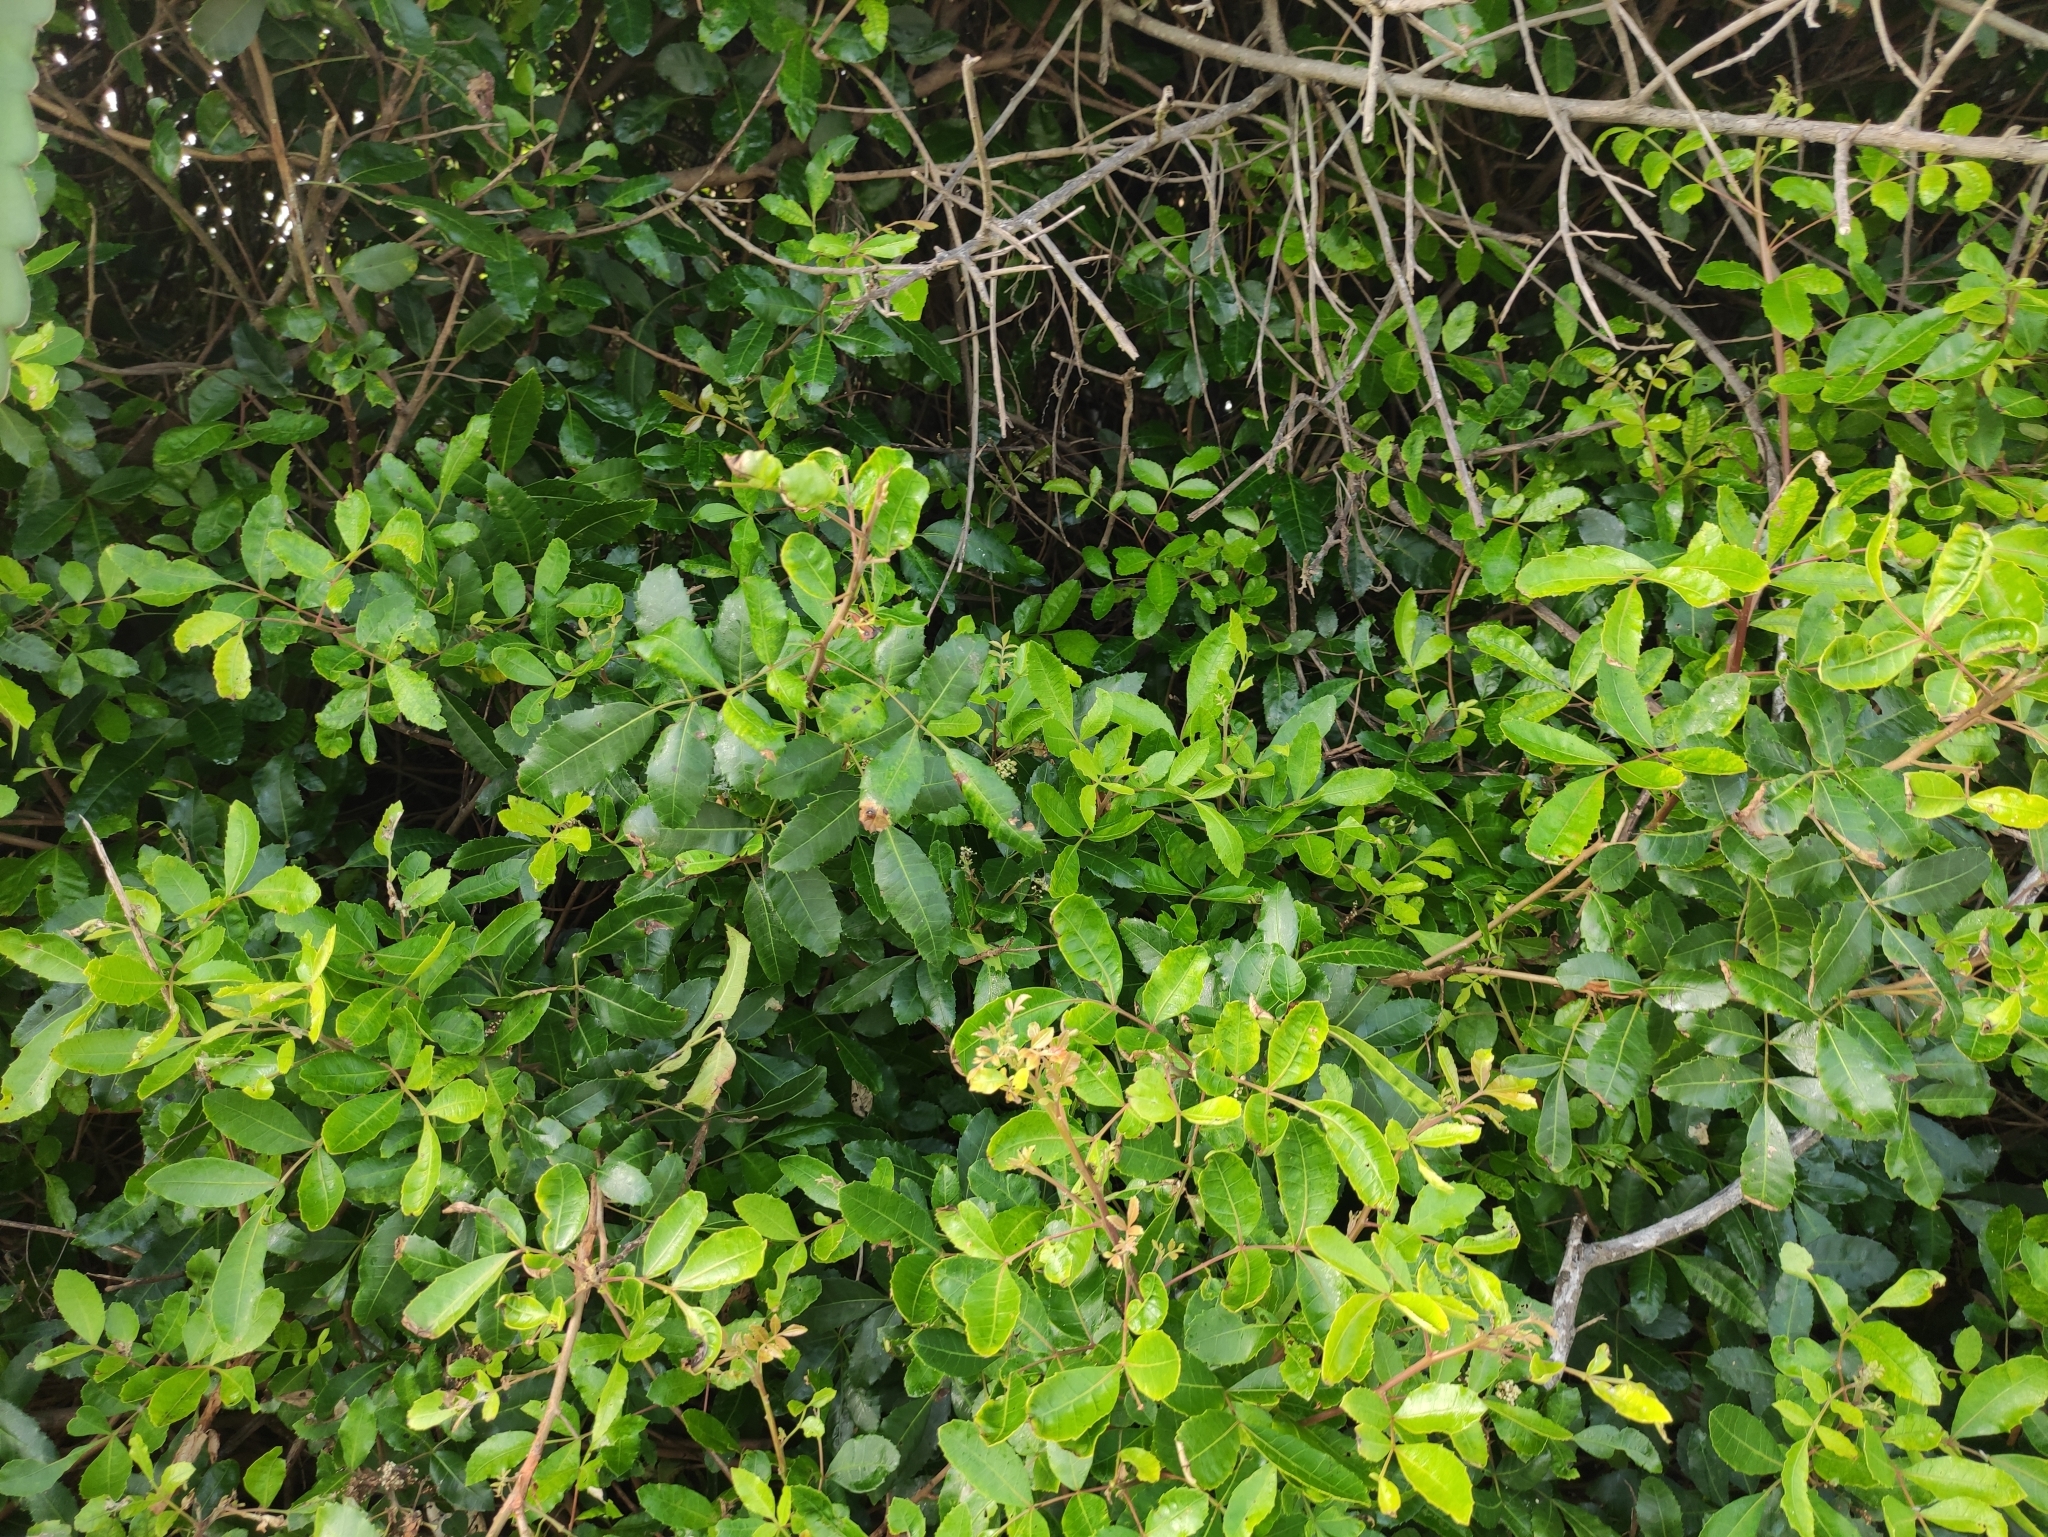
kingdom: Plantae
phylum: Tracheophyta
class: Magnoliopsida
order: Sapindales
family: Anacardiaceae
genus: Schinus
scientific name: Schinus terebinthifolia
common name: Brazilian peppertree
